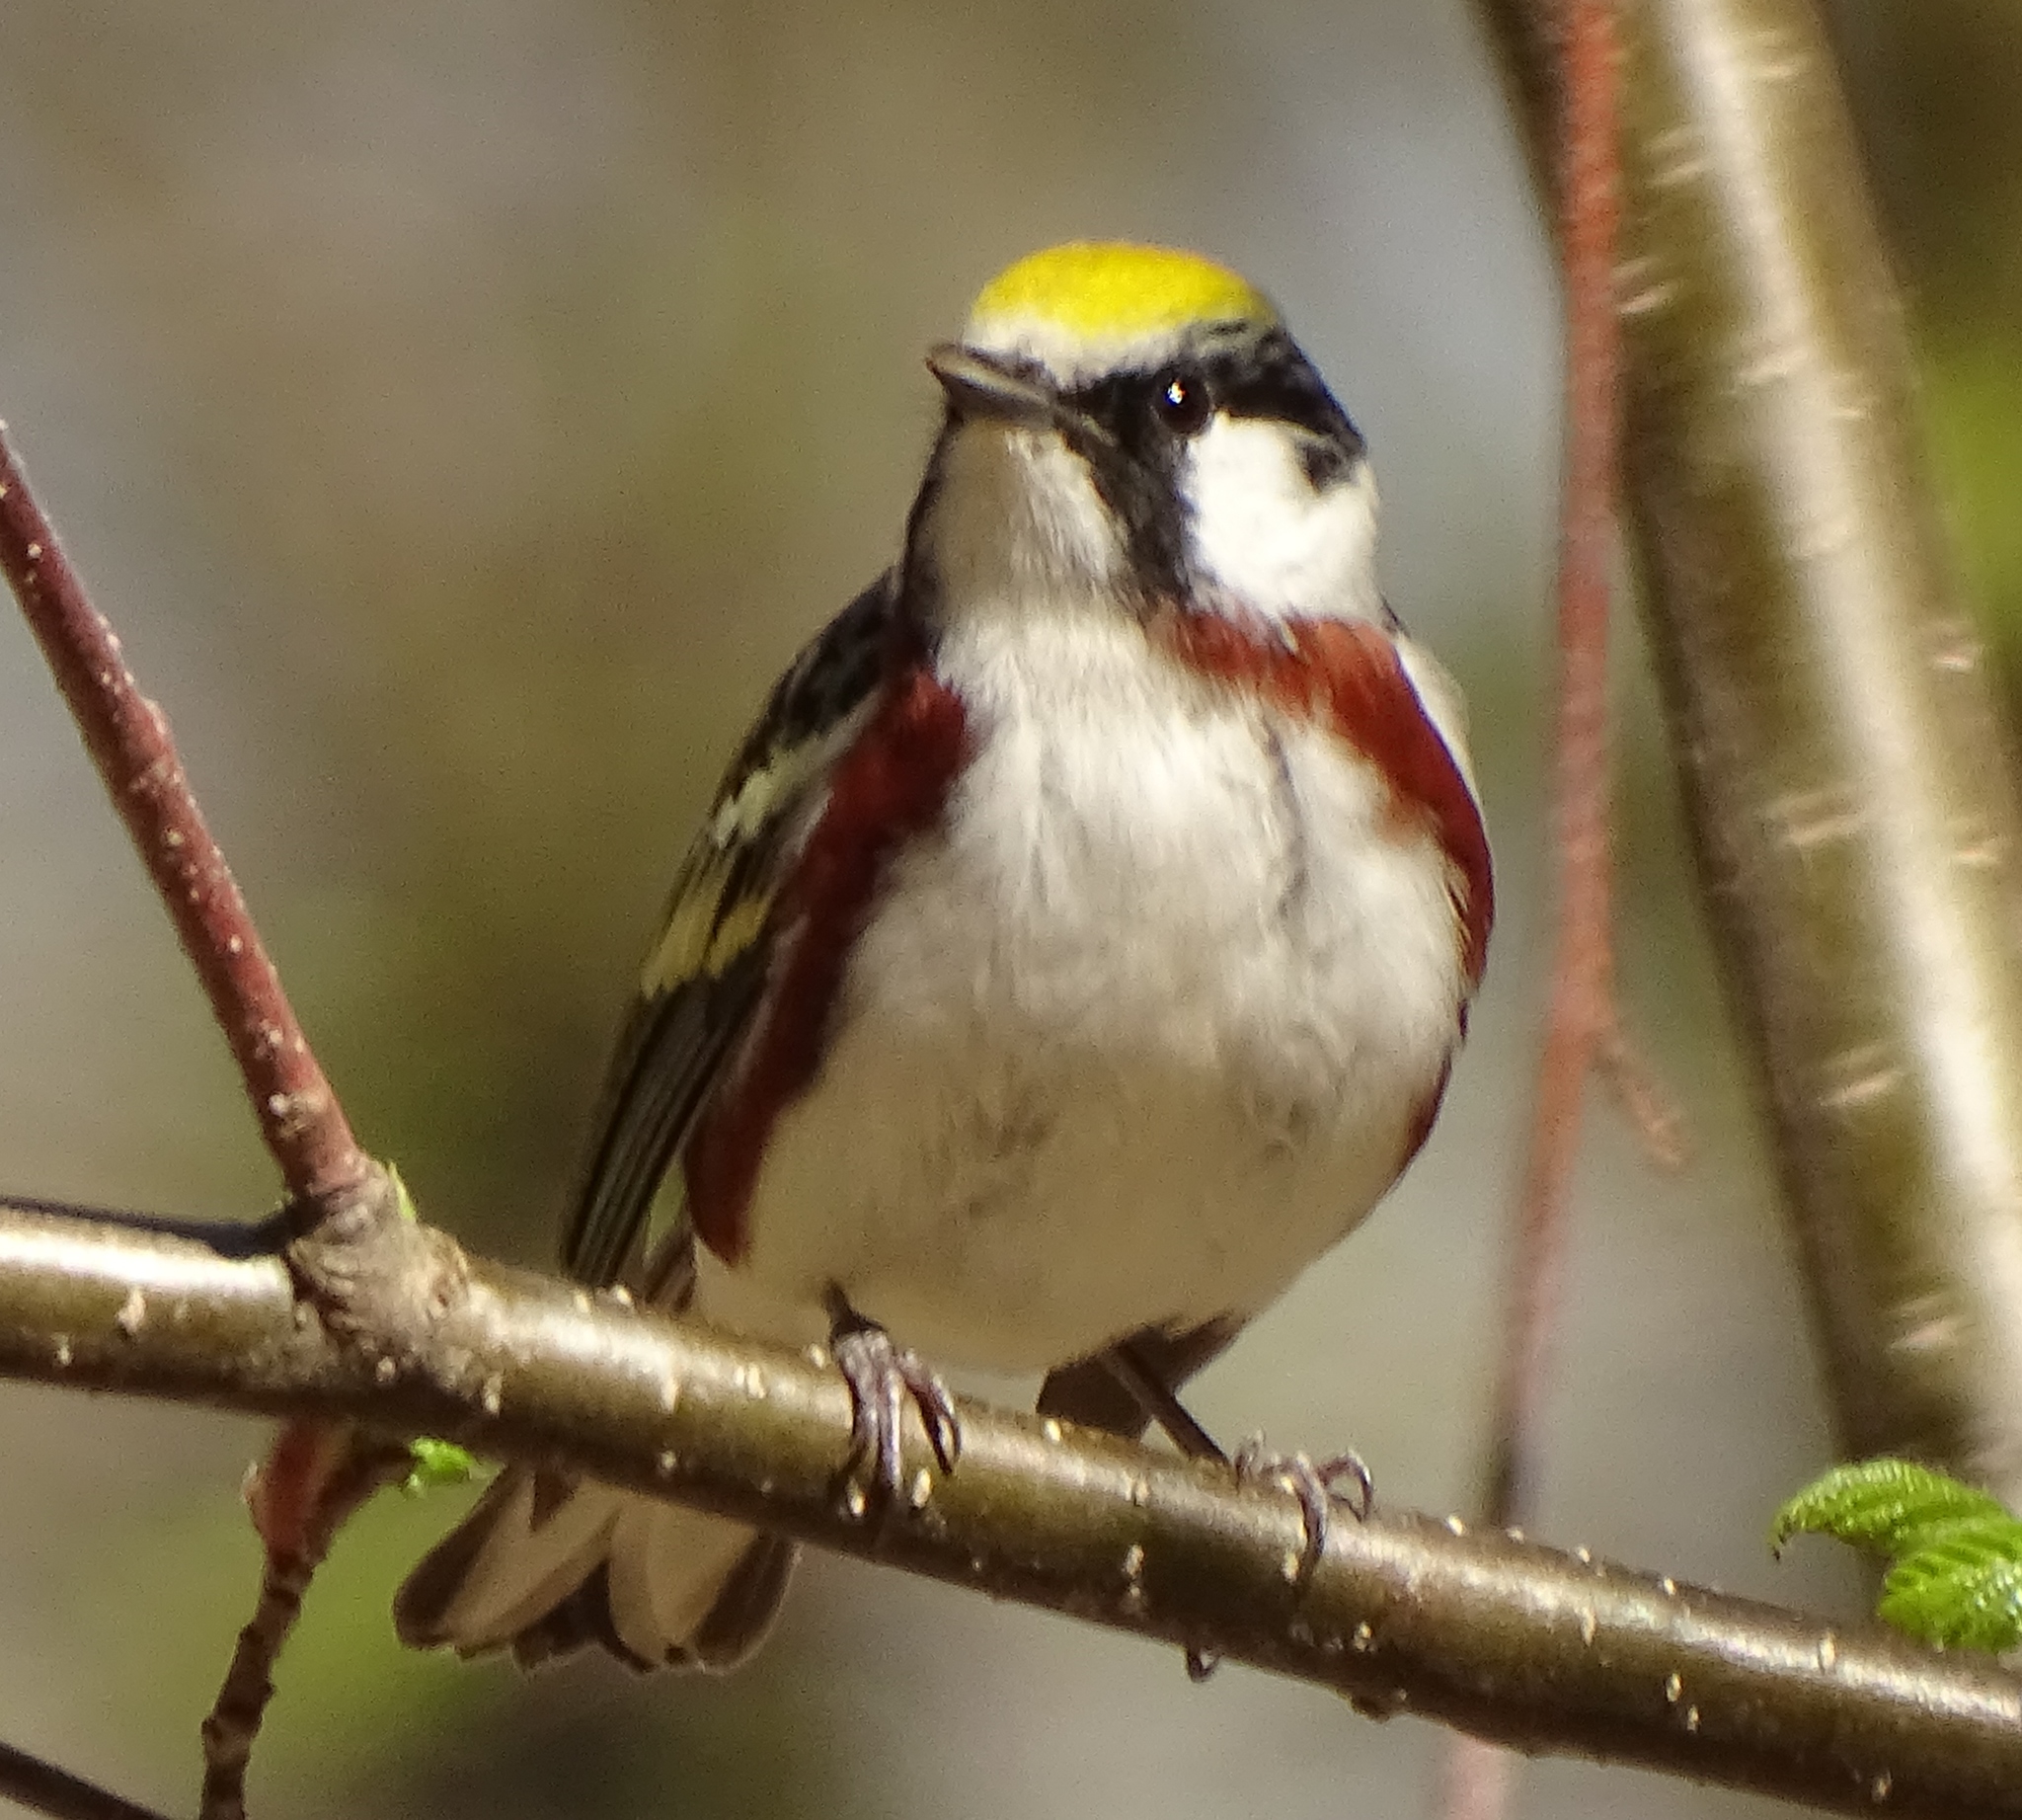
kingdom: Animalia
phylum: Chordata
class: Aves
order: Passeriformes
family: Parulidae
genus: Setophaga
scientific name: Setophaga pensylvanica
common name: Chestnut-sided warbler
